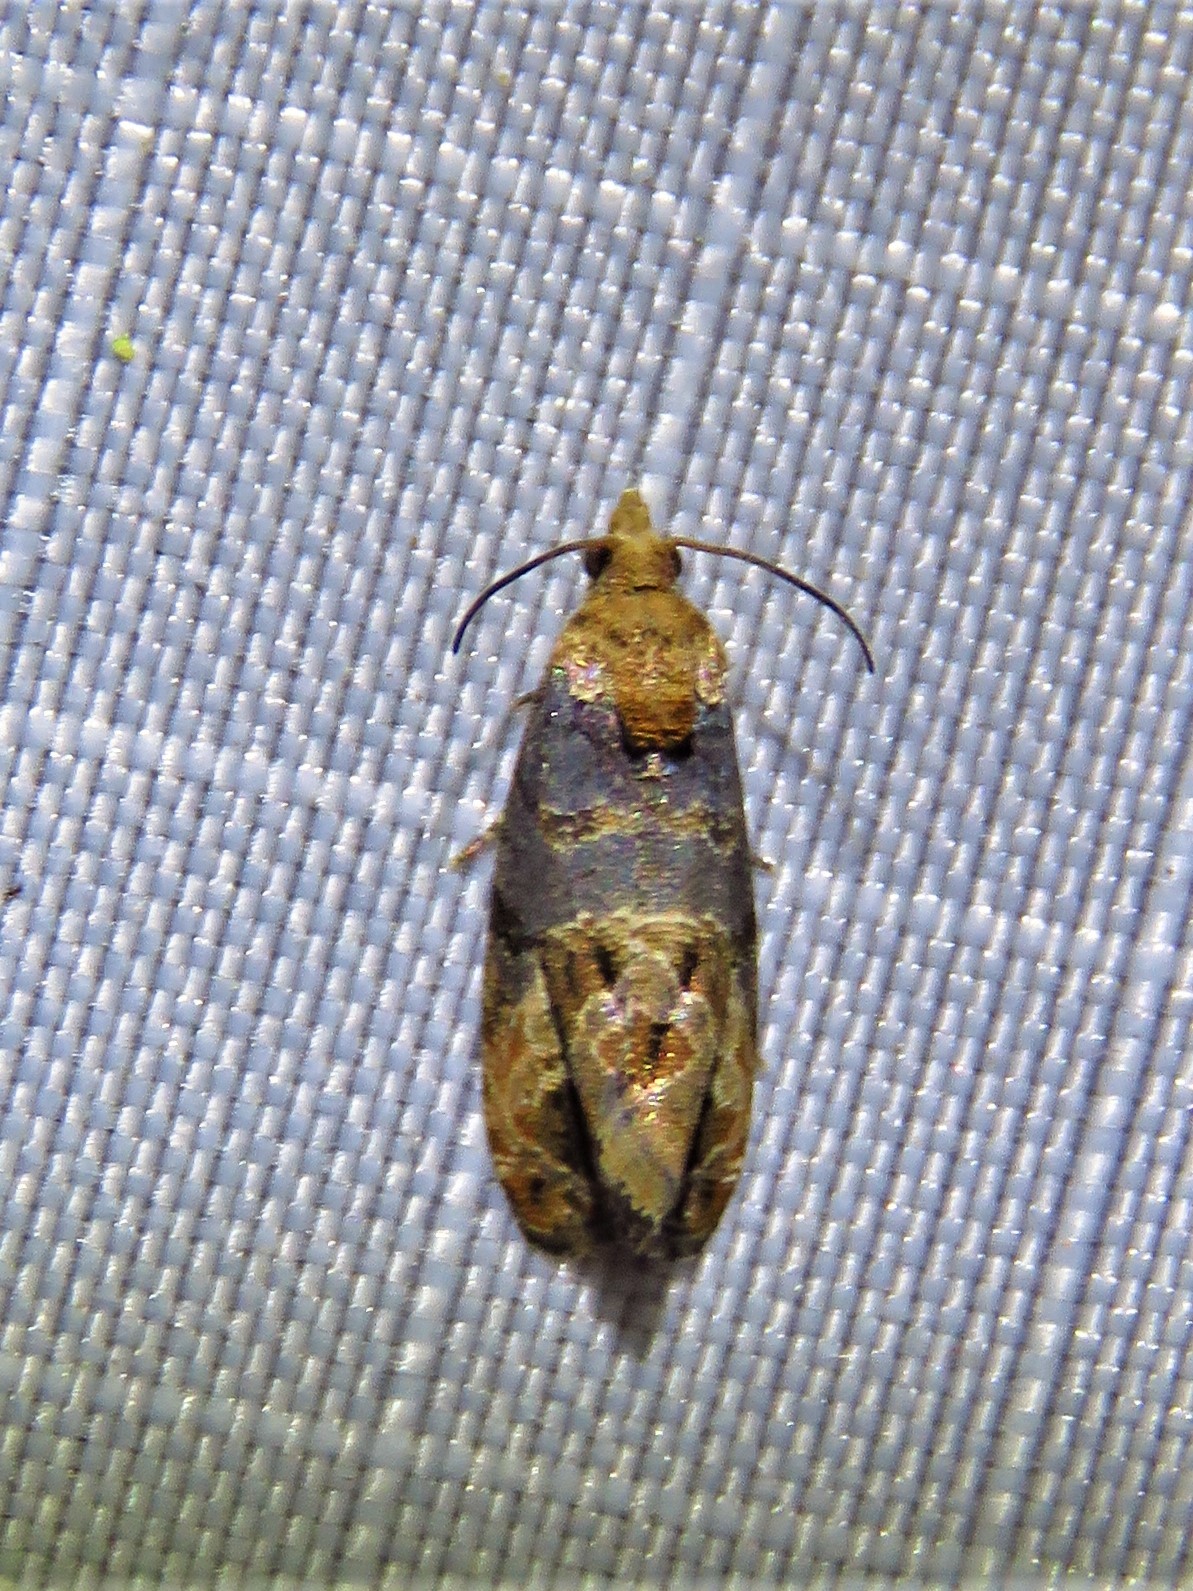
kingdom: Animalia
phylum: Arthropoda
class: Insecta
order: Lepidoptera
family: Tortricidae
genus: Paralobesia
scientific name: Paralobesia viteana
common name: Grape berry moth
